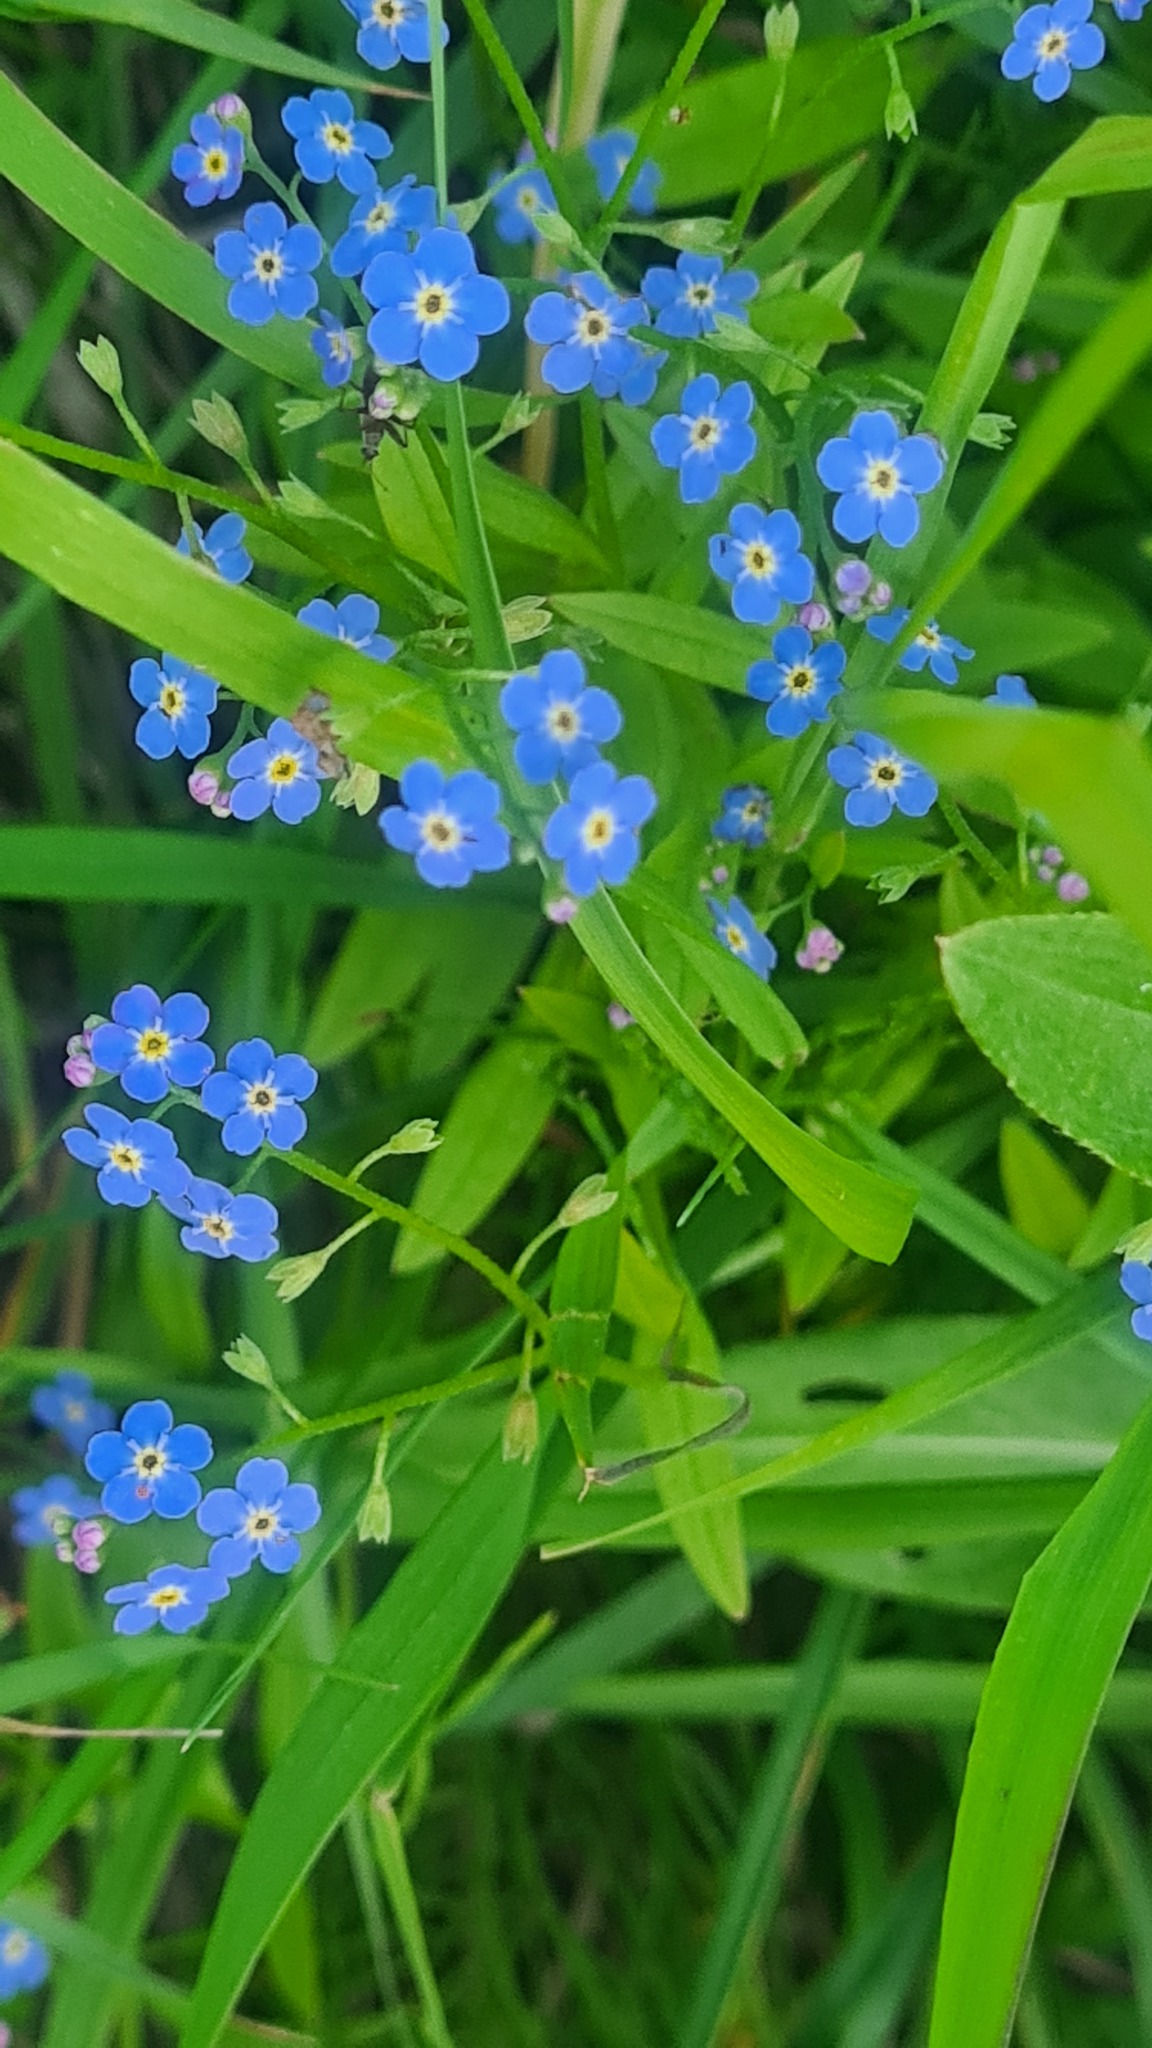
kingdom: Plantae
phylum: Tracheophyta
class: Magnoliopsida
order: Boraginales
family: Boraginaceae
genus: Myosotis
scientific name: Myosotis scorpioides
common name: Water forget-me-not
